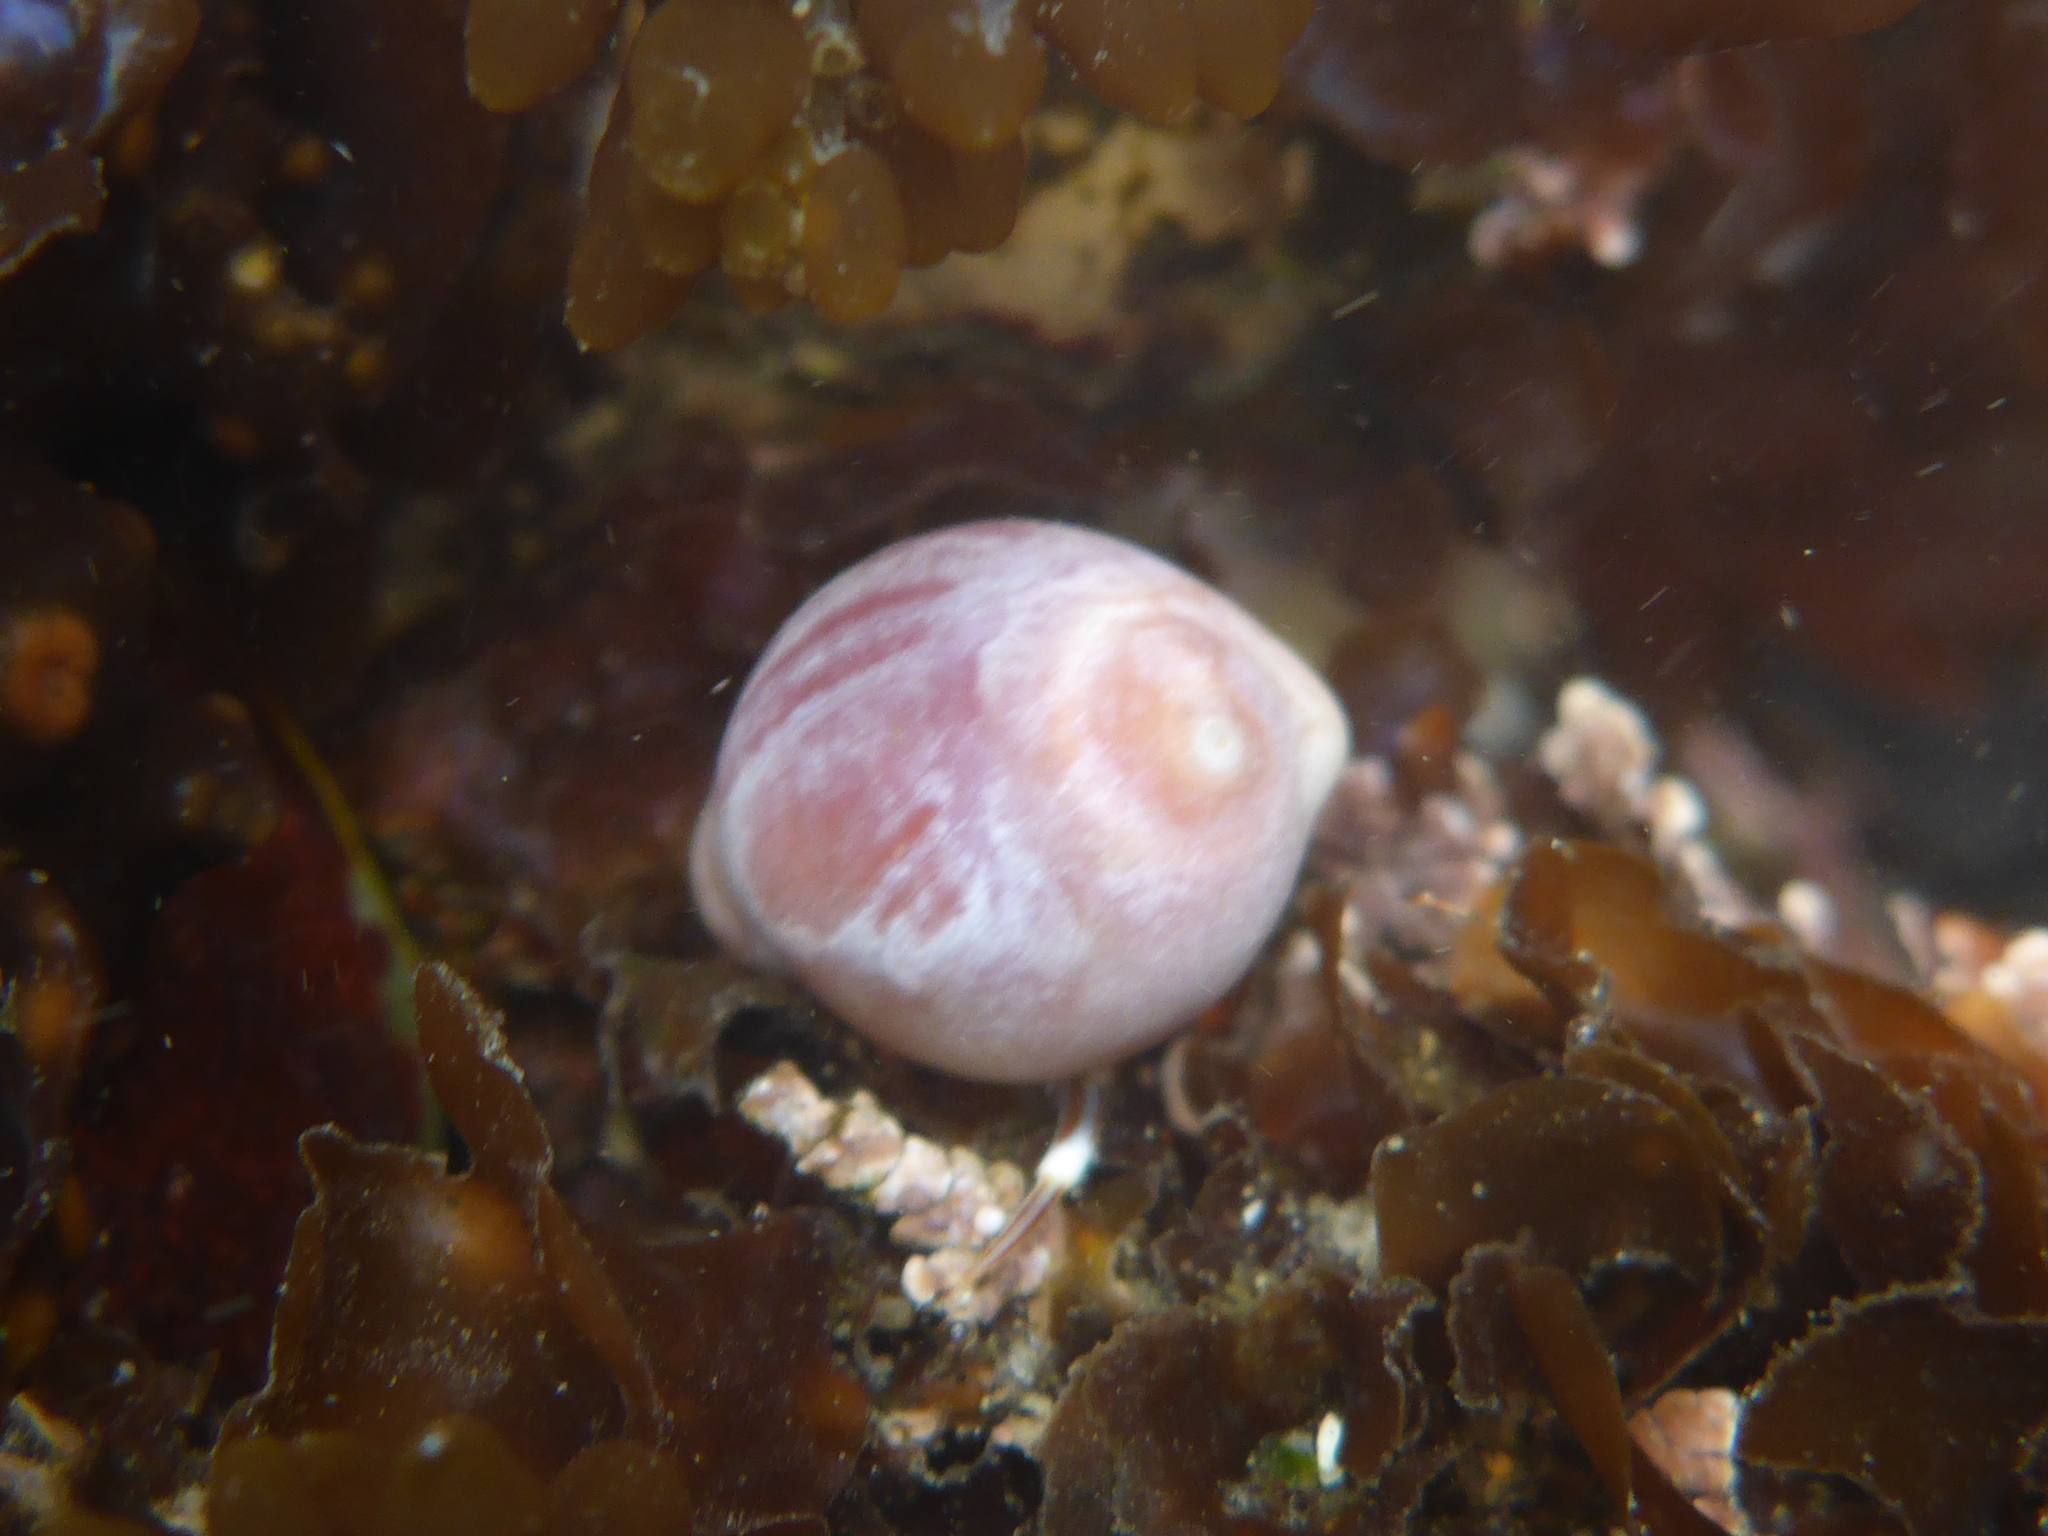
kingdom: Animalia
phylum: Mollusca
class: Gastropoda
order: Littorinimorpha
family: Eratoidae
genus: Hespererato
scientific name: Hespererato vitellina
